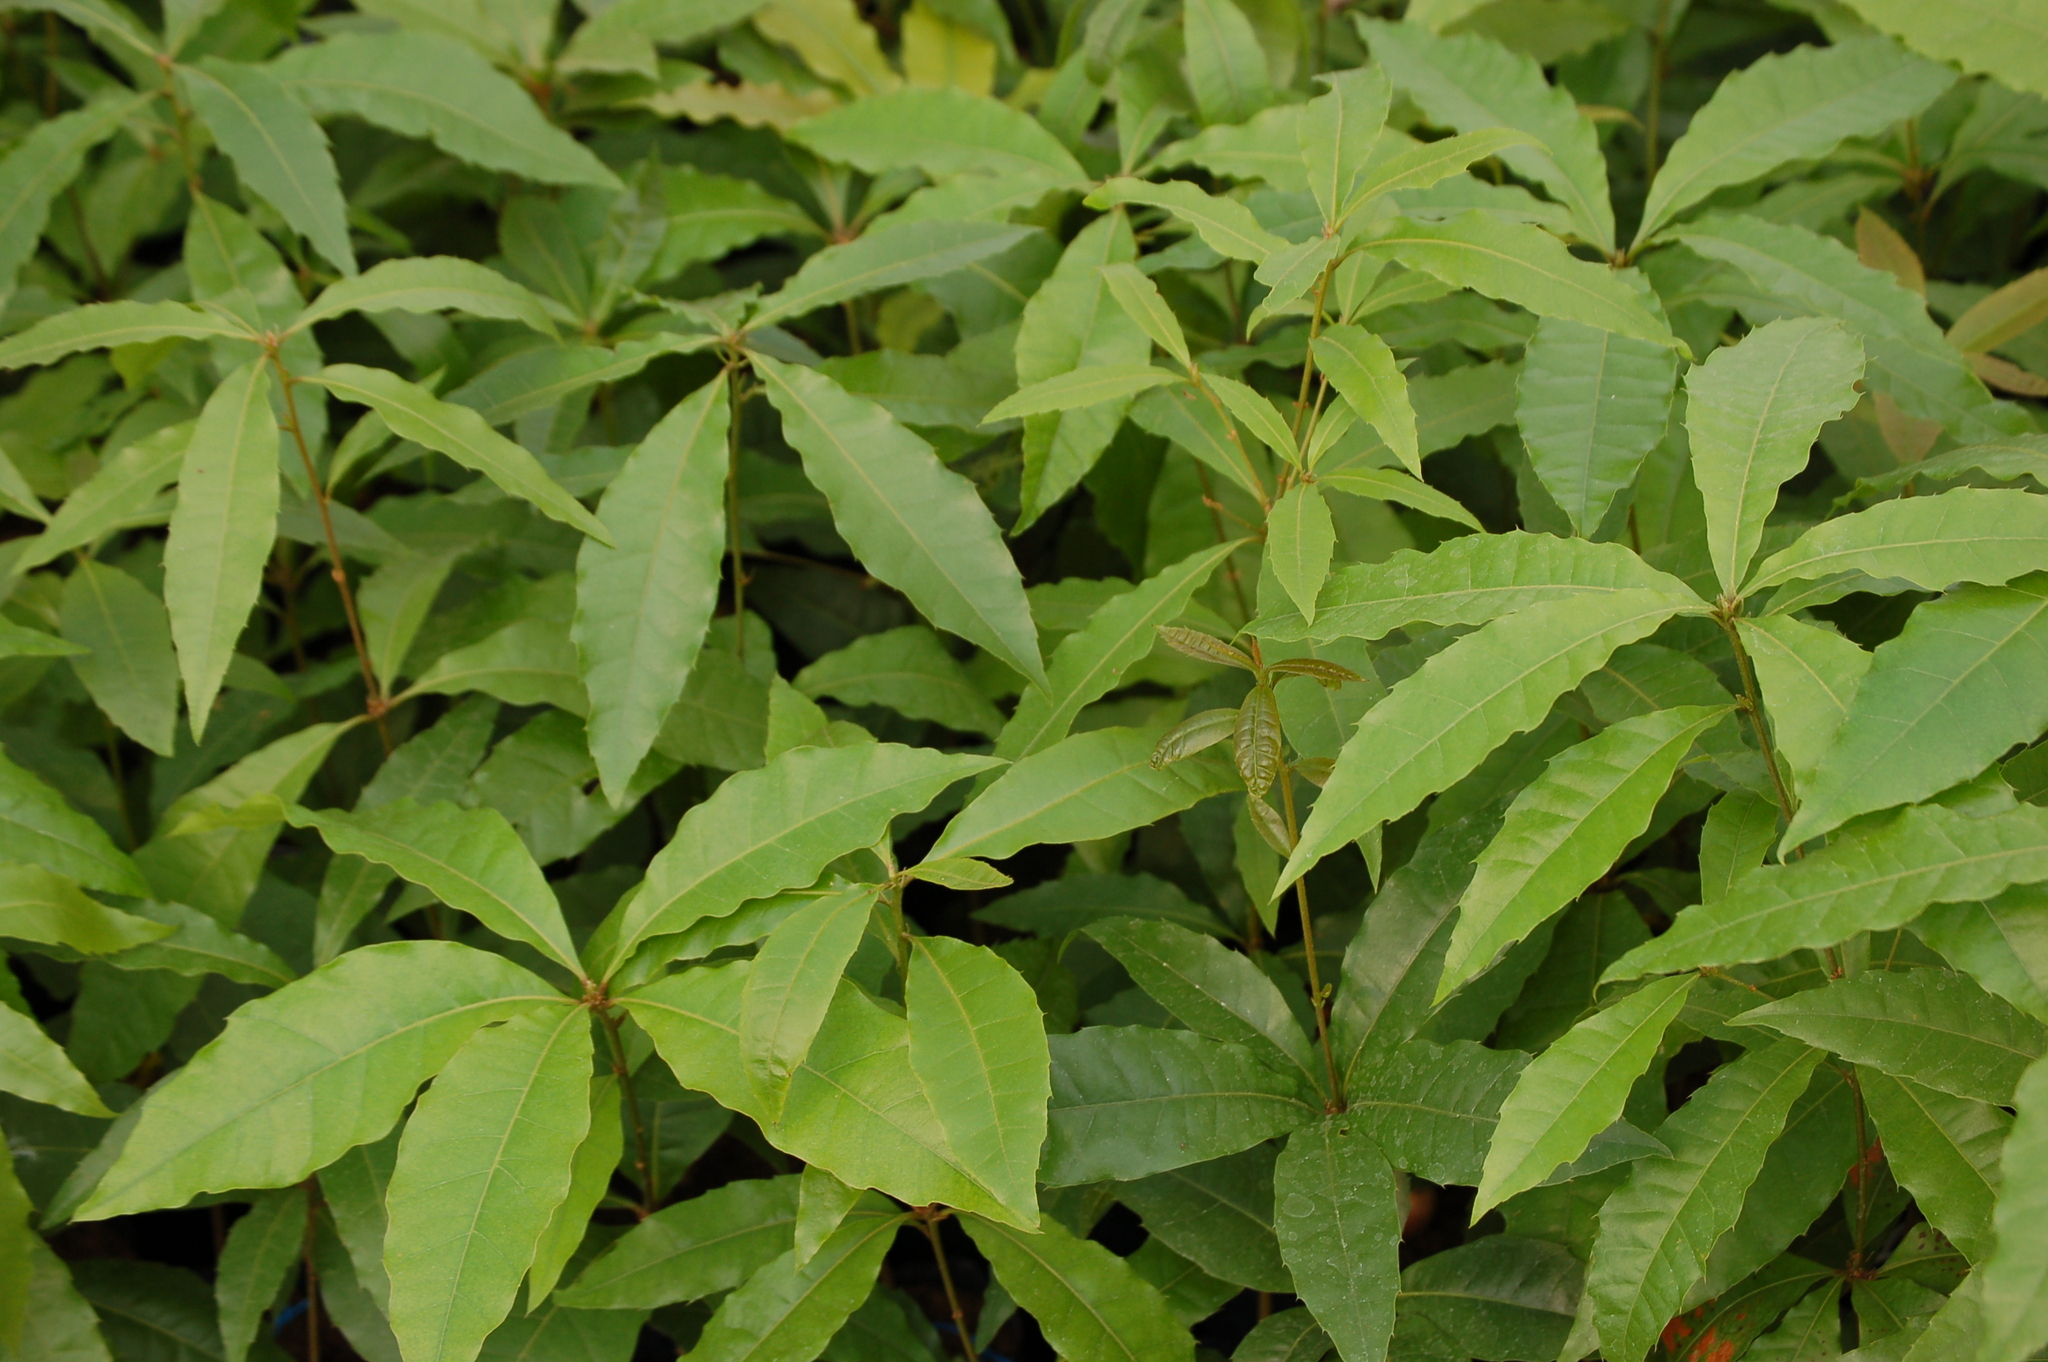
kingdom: Plantae
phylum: Tracheophyta
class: Magnoliopsida
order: Fagales
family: Fagaceae
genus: Quercus
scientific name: Quercus skinneri
